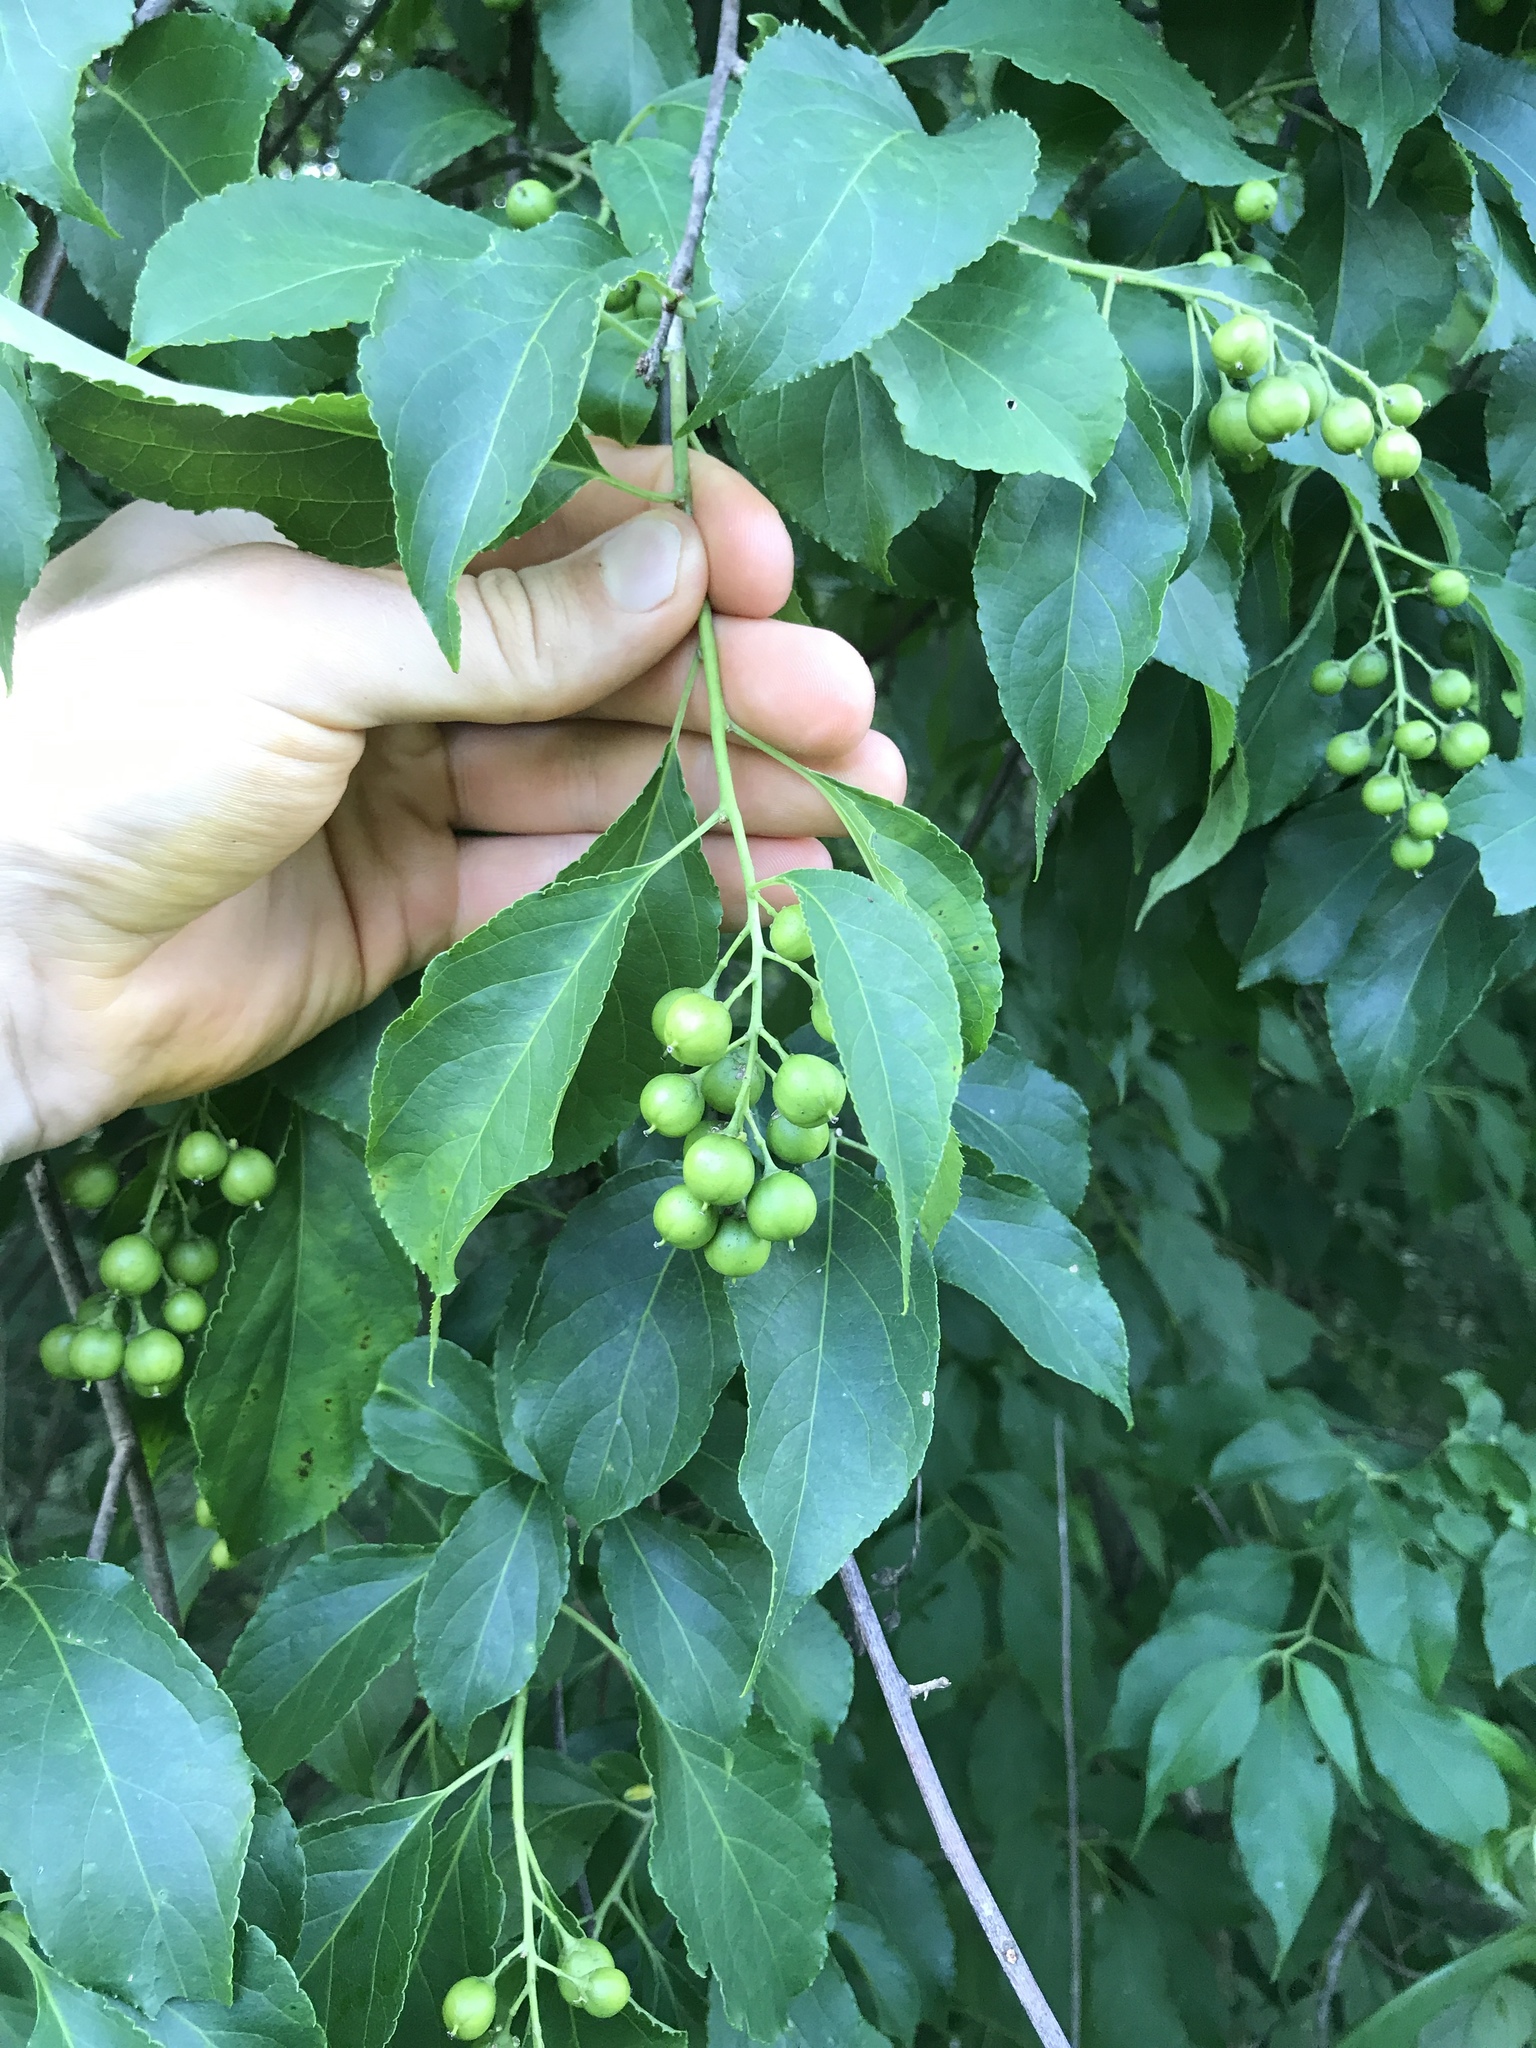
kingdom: Plantae
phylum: Tracheophyta
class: Magnoliopsida
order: Celastrales
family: Celastraceae
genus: Celastrus
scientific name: Celastrus scandens
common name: American bittersweet
